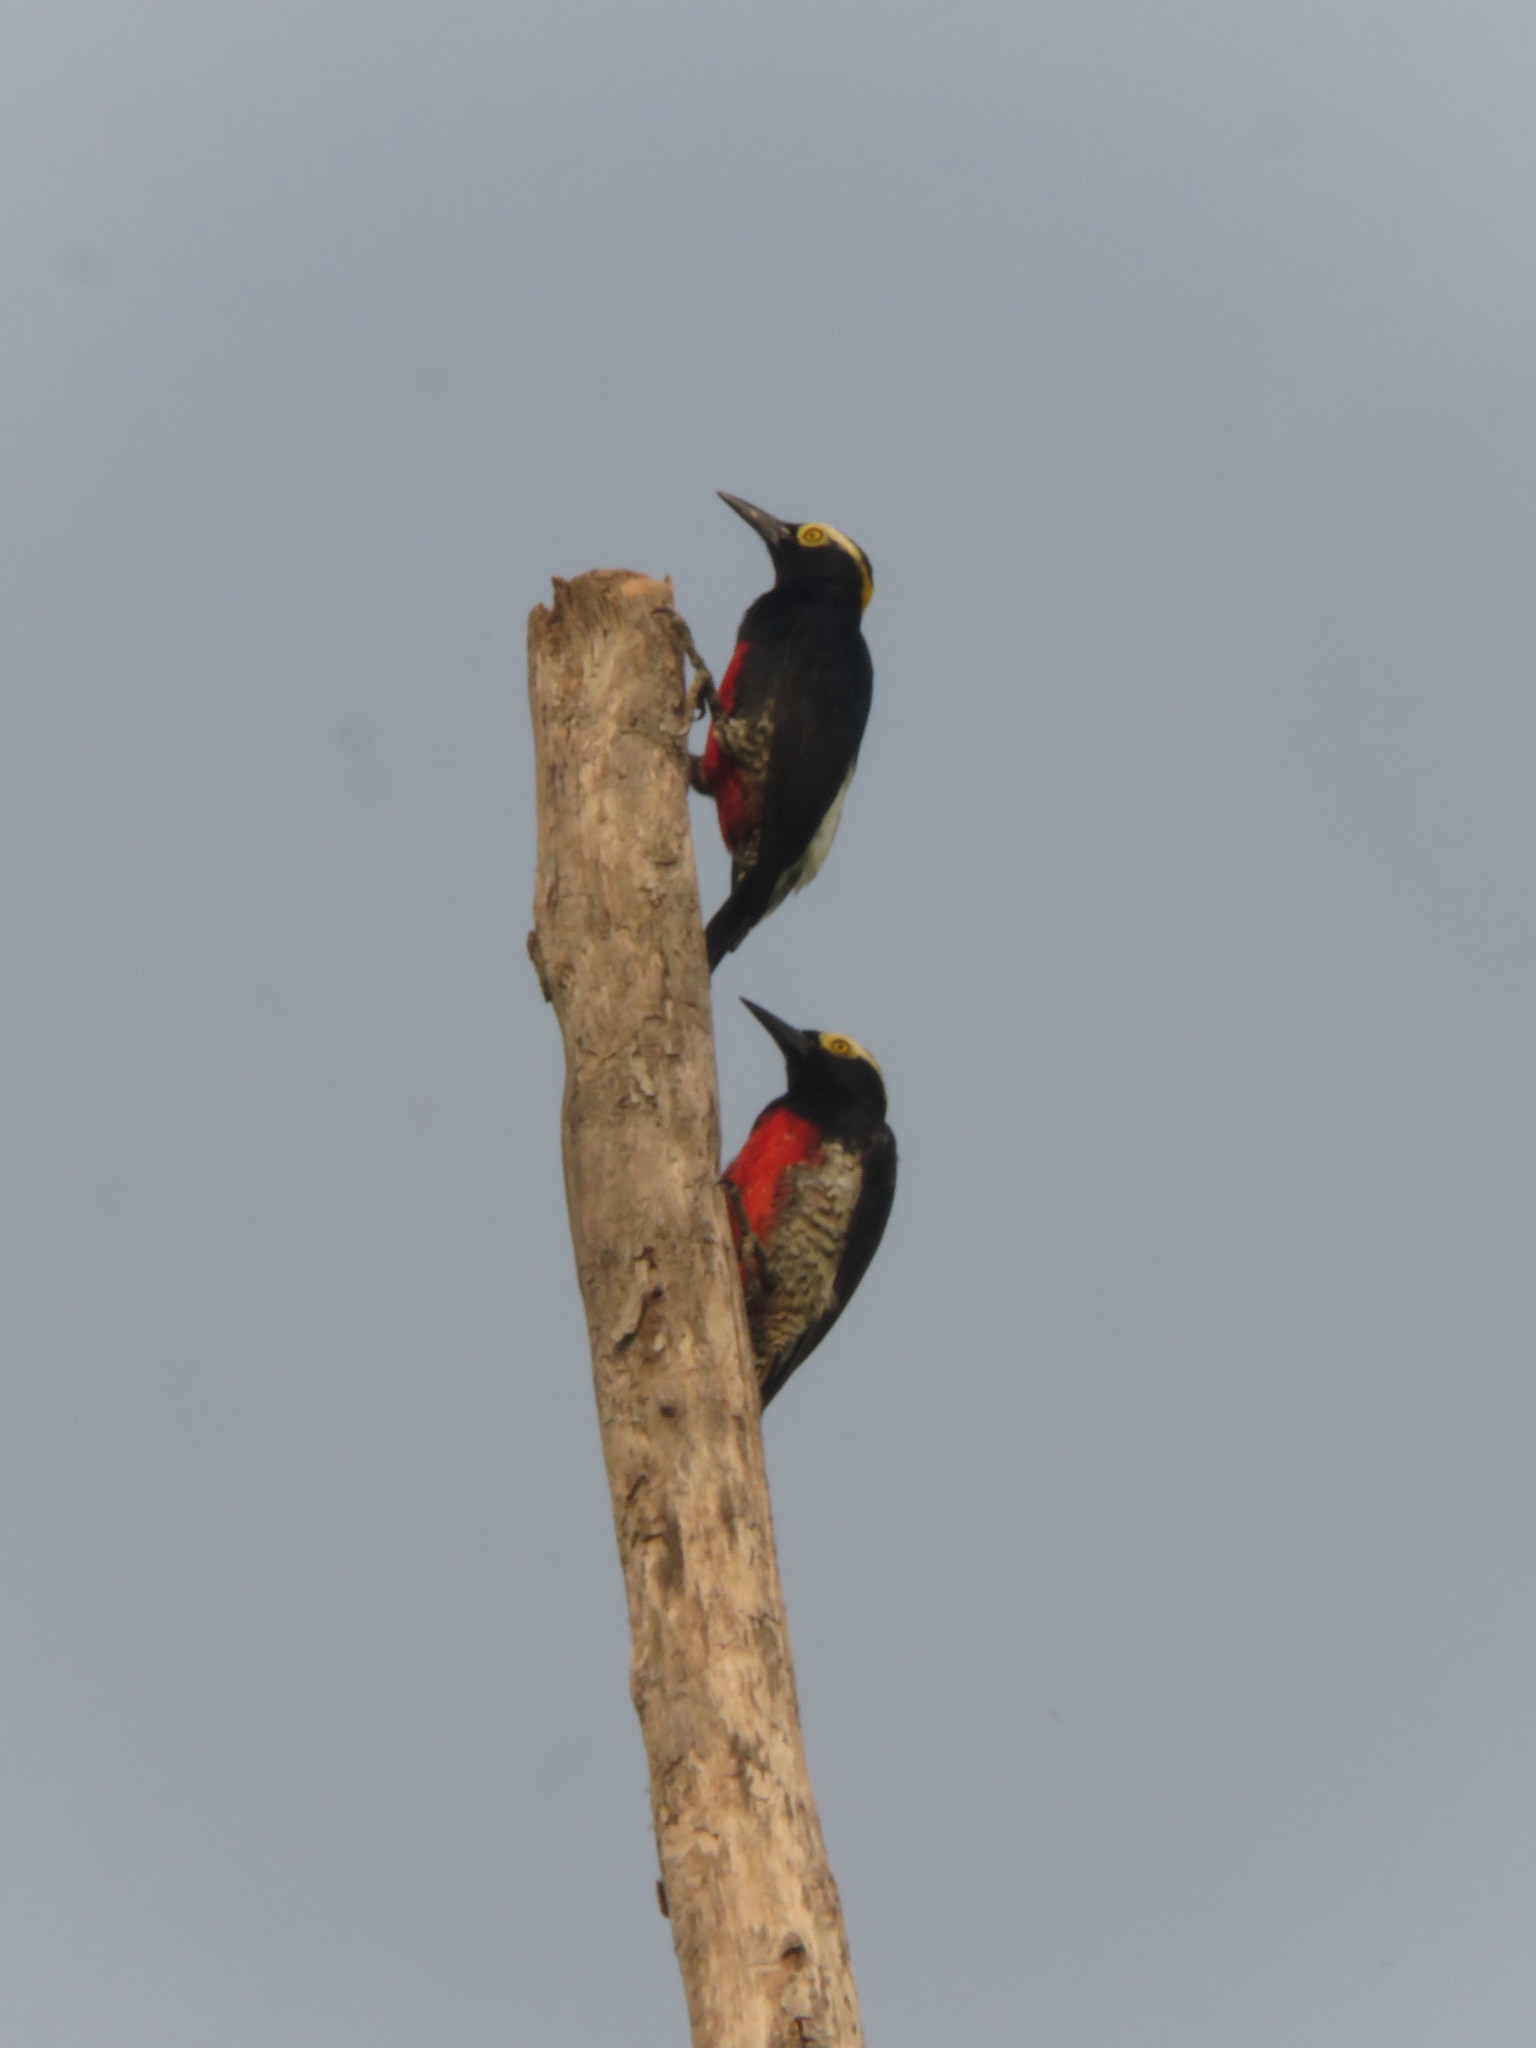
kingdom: Animalia
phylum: Chordata
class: Aves
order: Piciformes
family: Picidae
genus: Melanerpes
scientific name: Melanerpes cruentatus
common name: Yellow-tufted woodpecker
